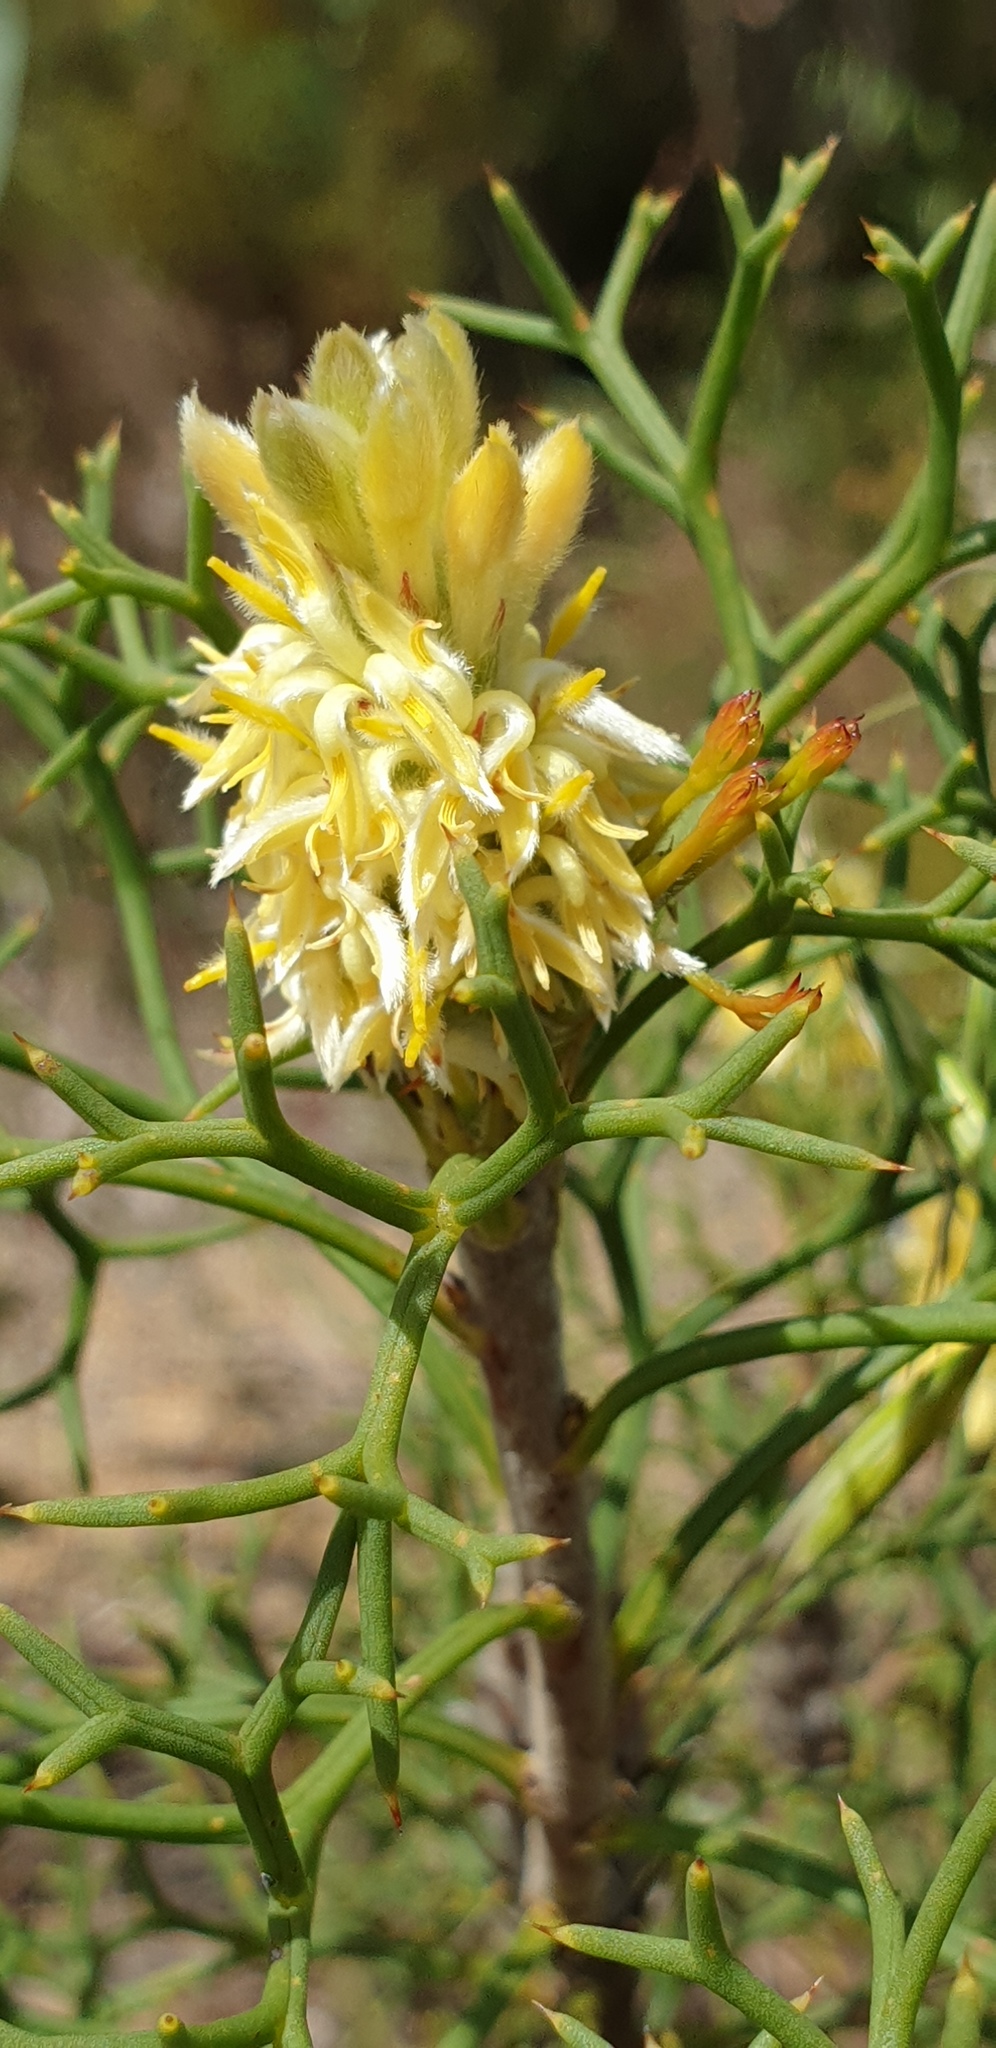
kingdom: Plantae
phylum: Tracheophyta
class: Magnoliopsida
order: Proteales
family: Proteaceae
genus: Petrophile
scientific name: Petrophile multisecta
